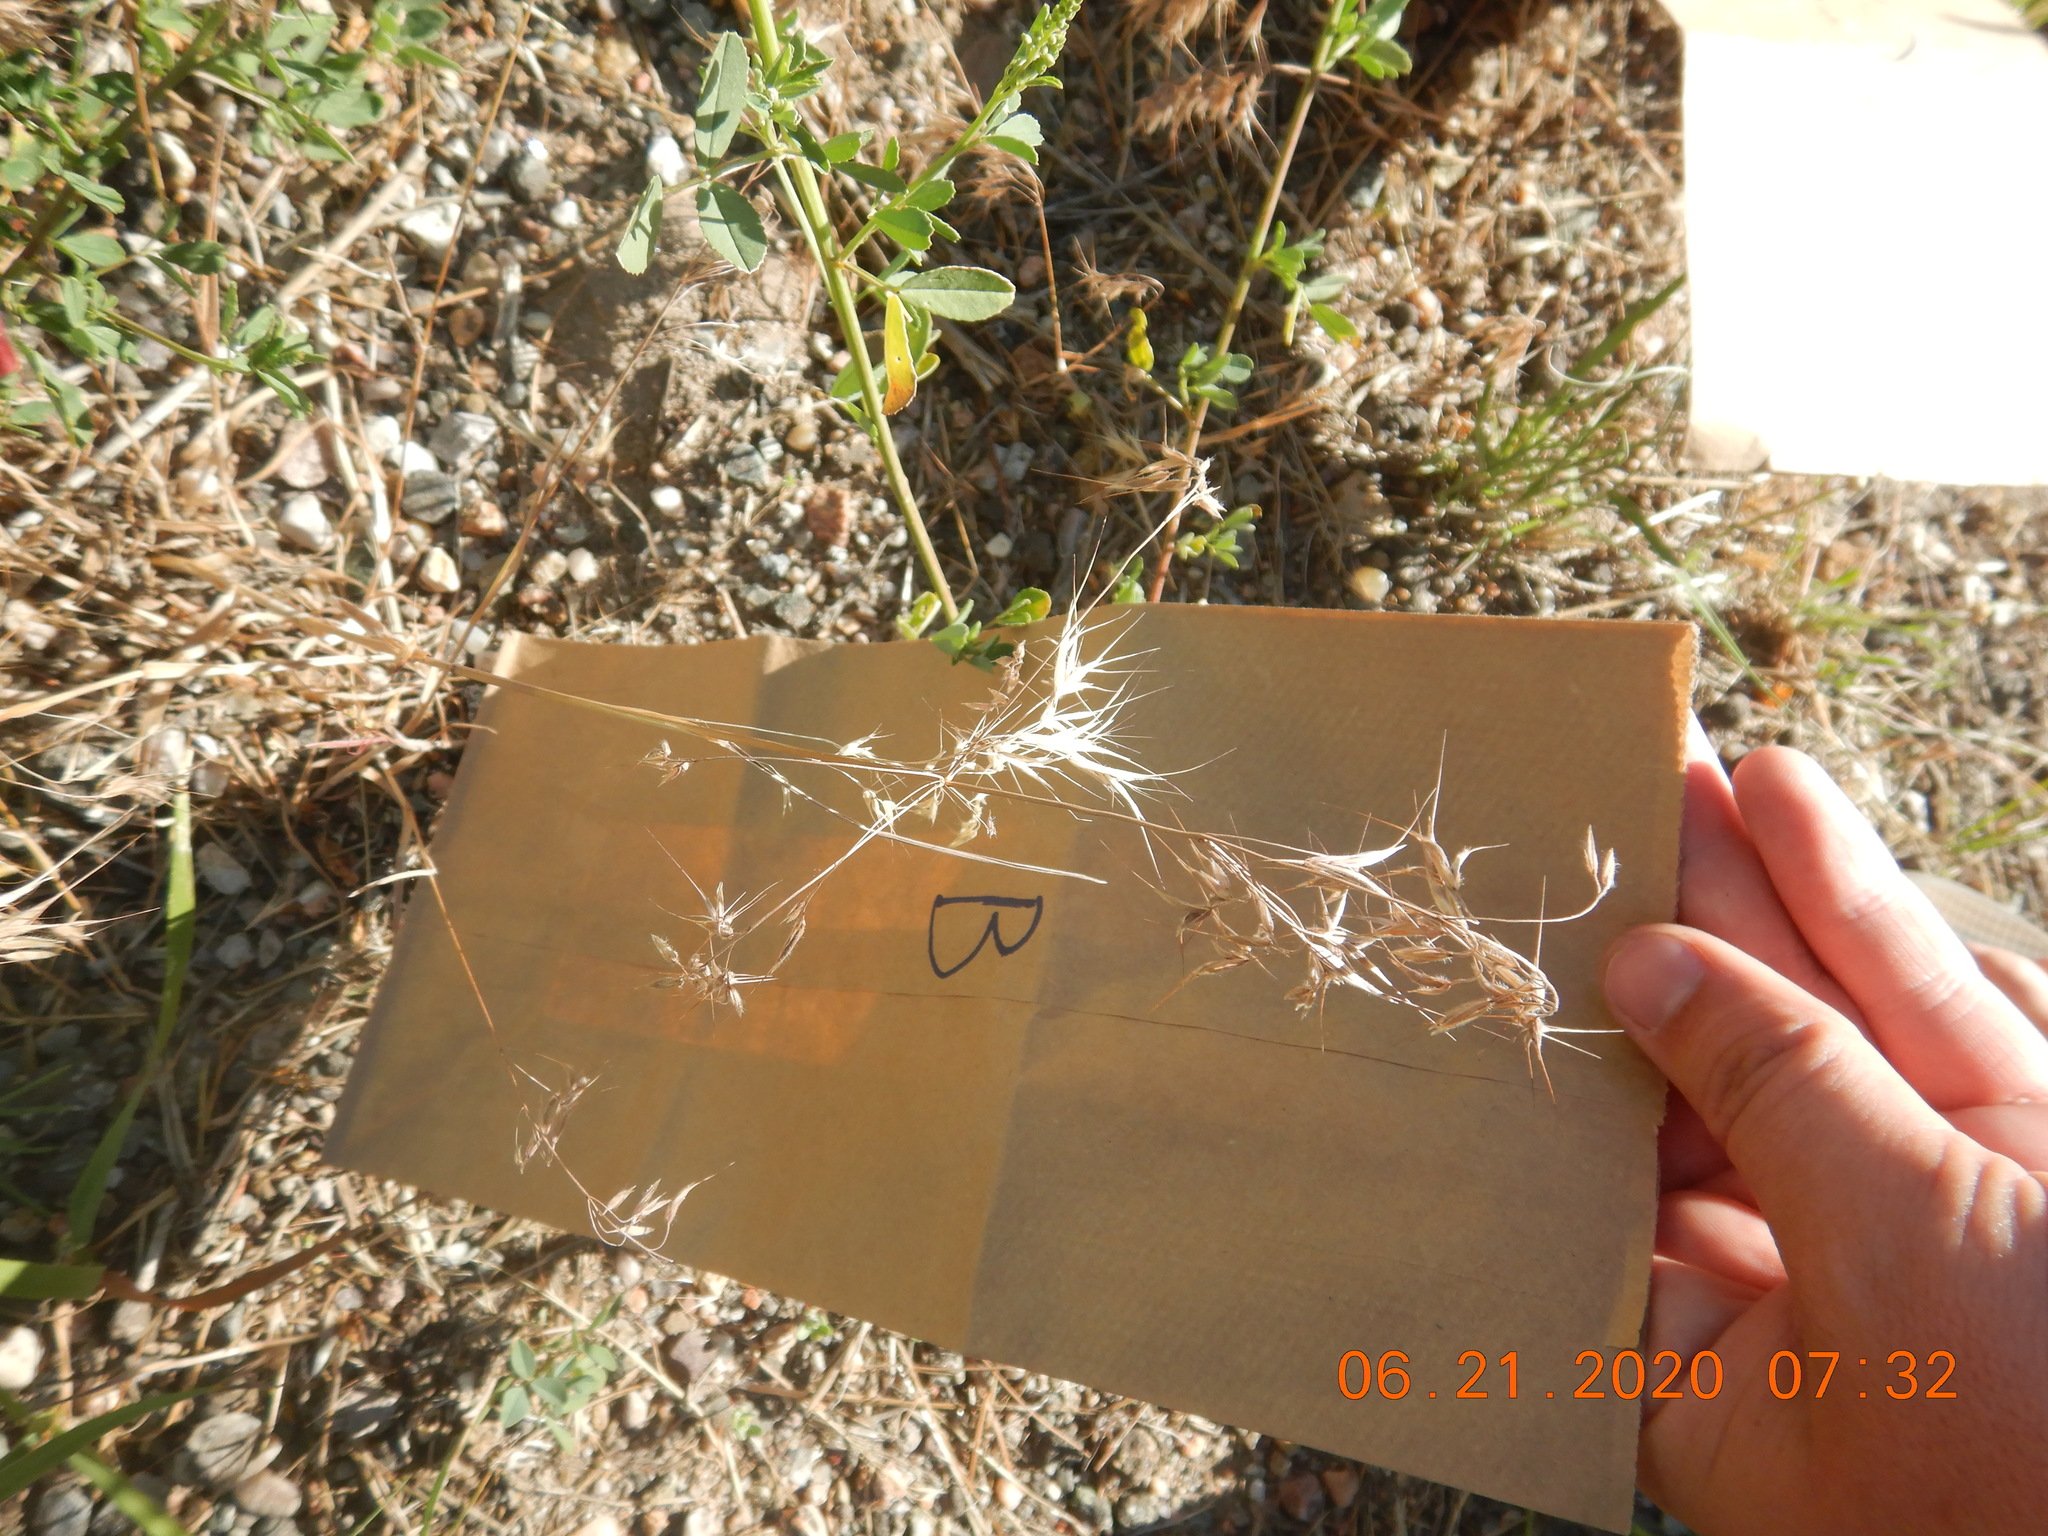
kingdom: Plantae
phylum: Tracheophyta
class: Liliopsida
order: Poales
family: Poaceae
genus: Bromus
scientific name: Bromus tectorum
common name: Cheatgrass
